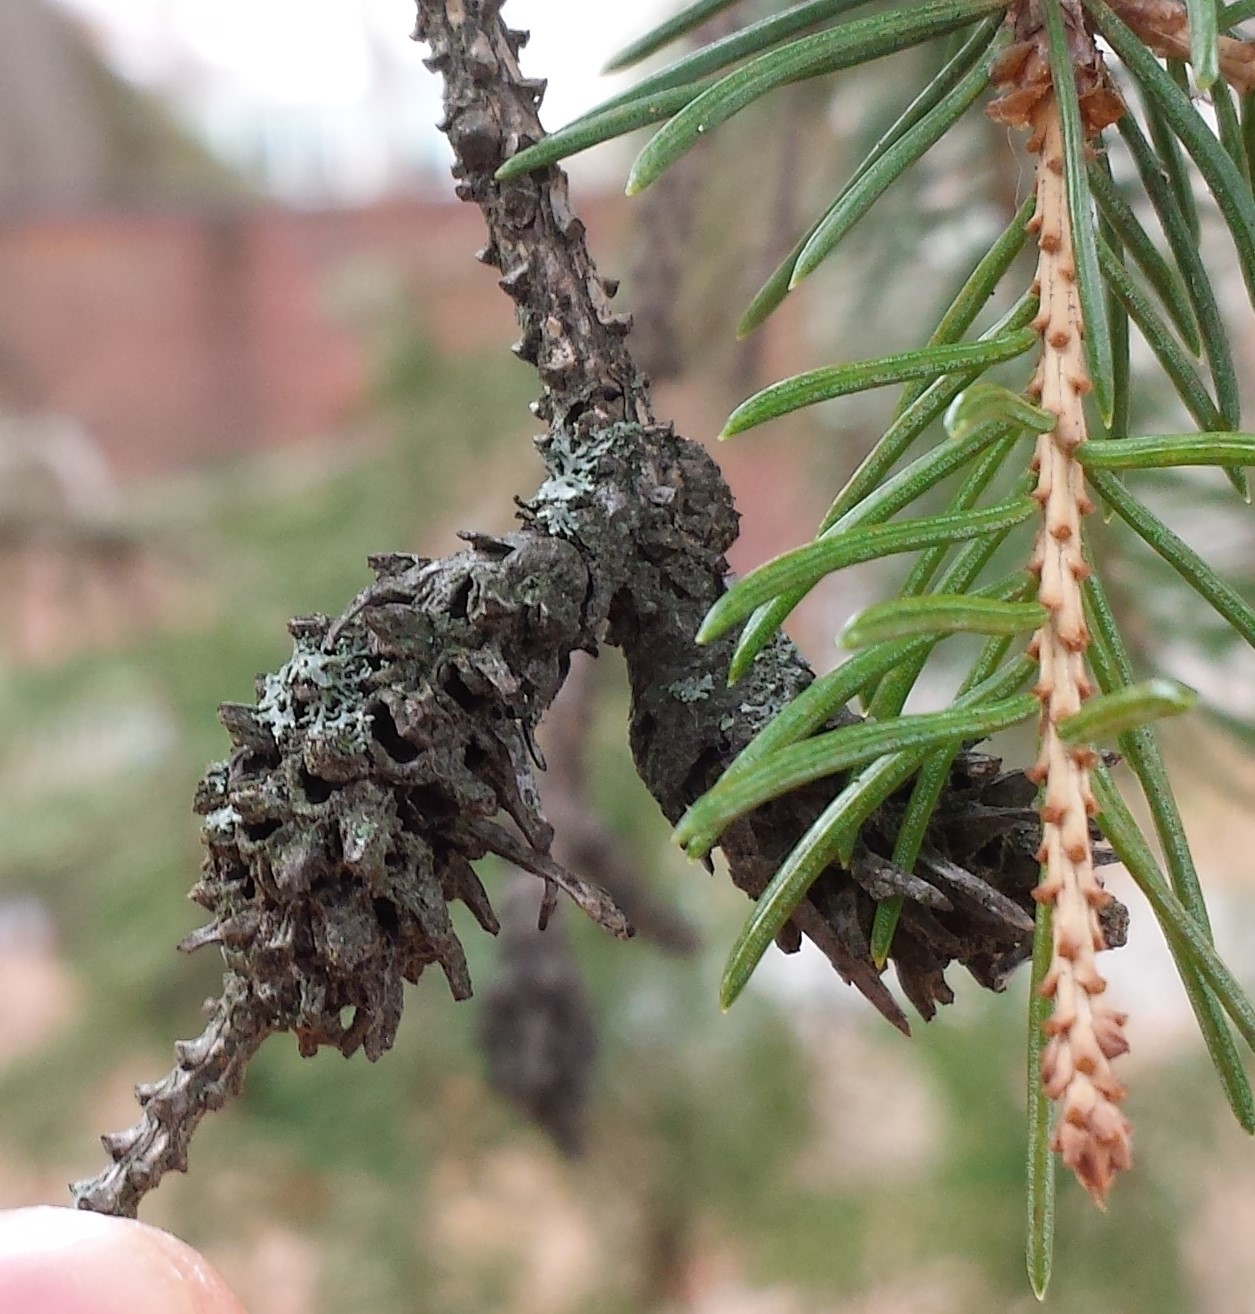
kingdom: Animalia
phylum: Arthropoda
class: Insecta
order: Hemiptera
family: Adelgidae
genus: Adelges
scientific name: Adelges abietis
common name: Eastern spruce gall adelgid
